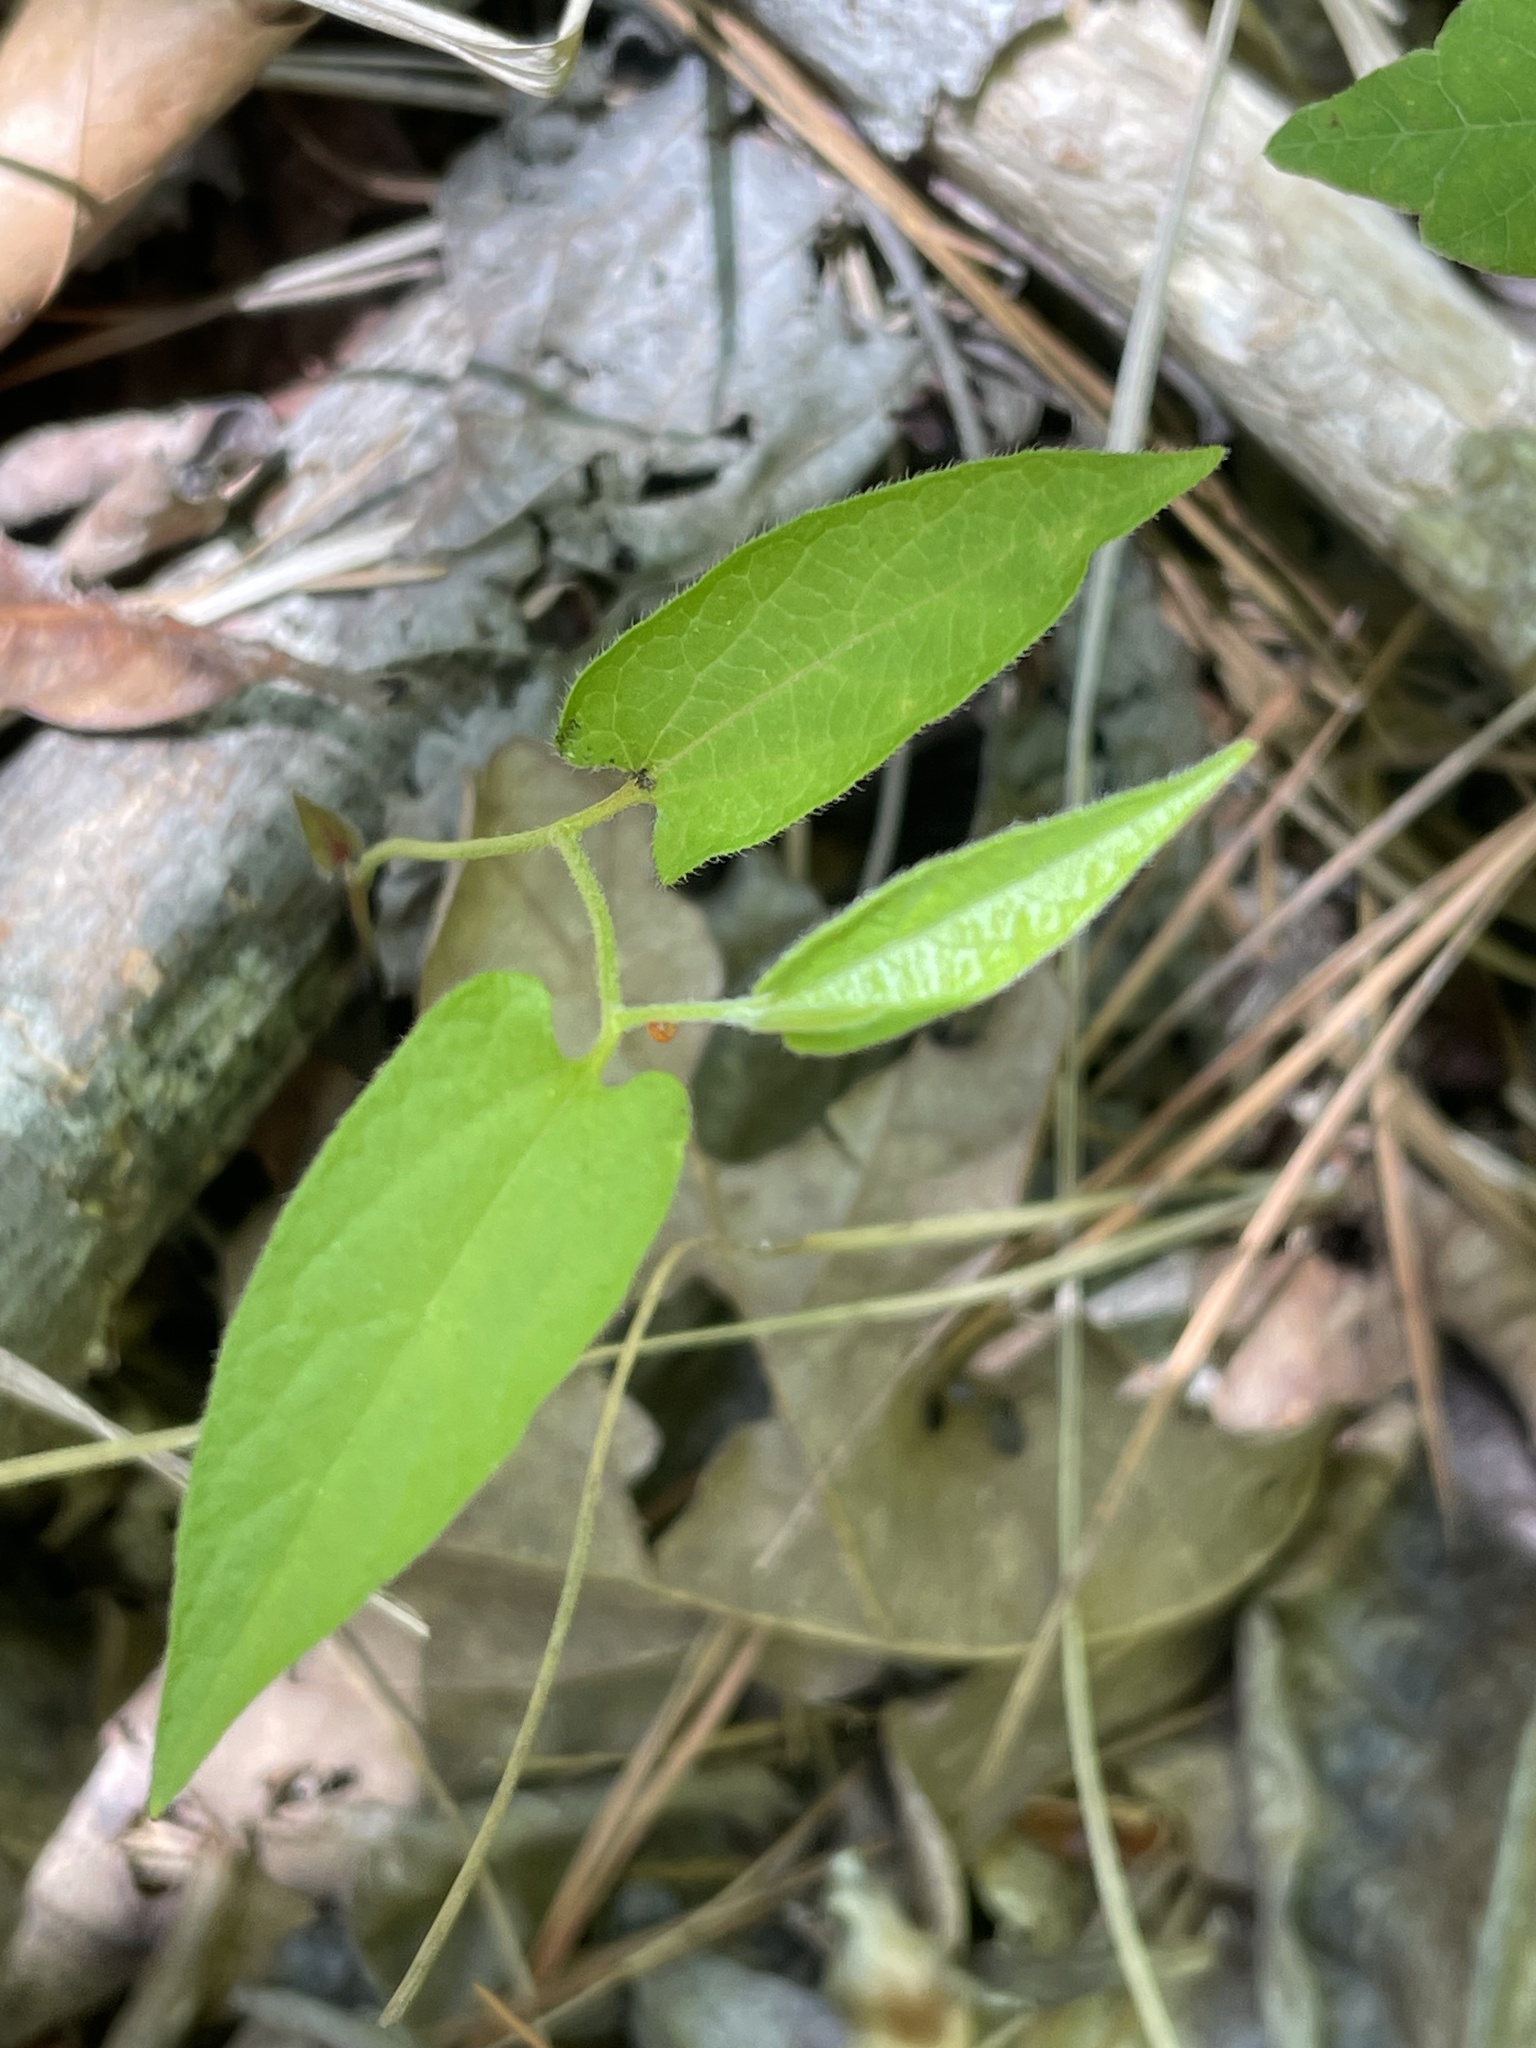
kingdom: Plantae
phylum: Tracheophyta
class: Magnoliopsida
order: Piperales
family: Aristolochiaceae
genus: Endodeca
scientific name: Endodeca serpentaria
